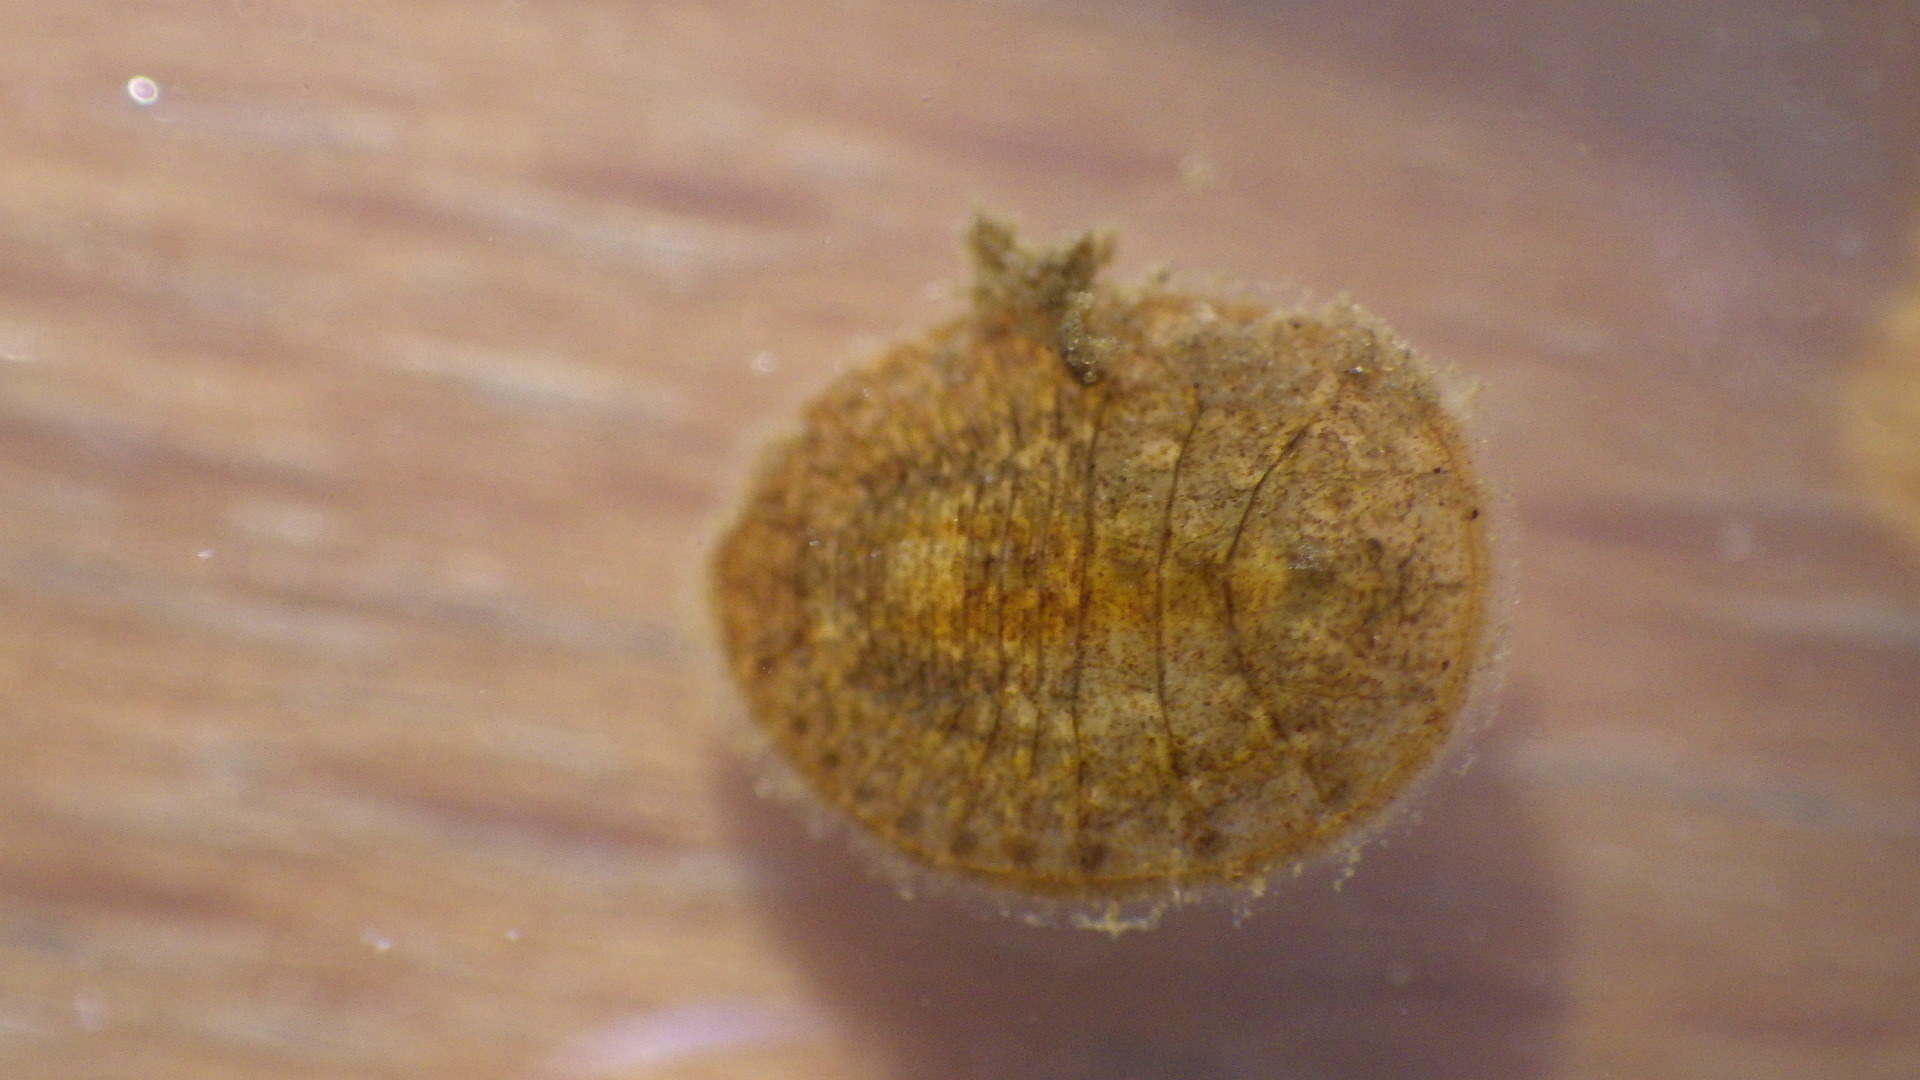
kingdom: Animalia
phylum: Arthropoda
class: Insecta
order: Coleoptera
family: Psephenidae
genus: Psephenus
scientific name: Psephenus herricki
